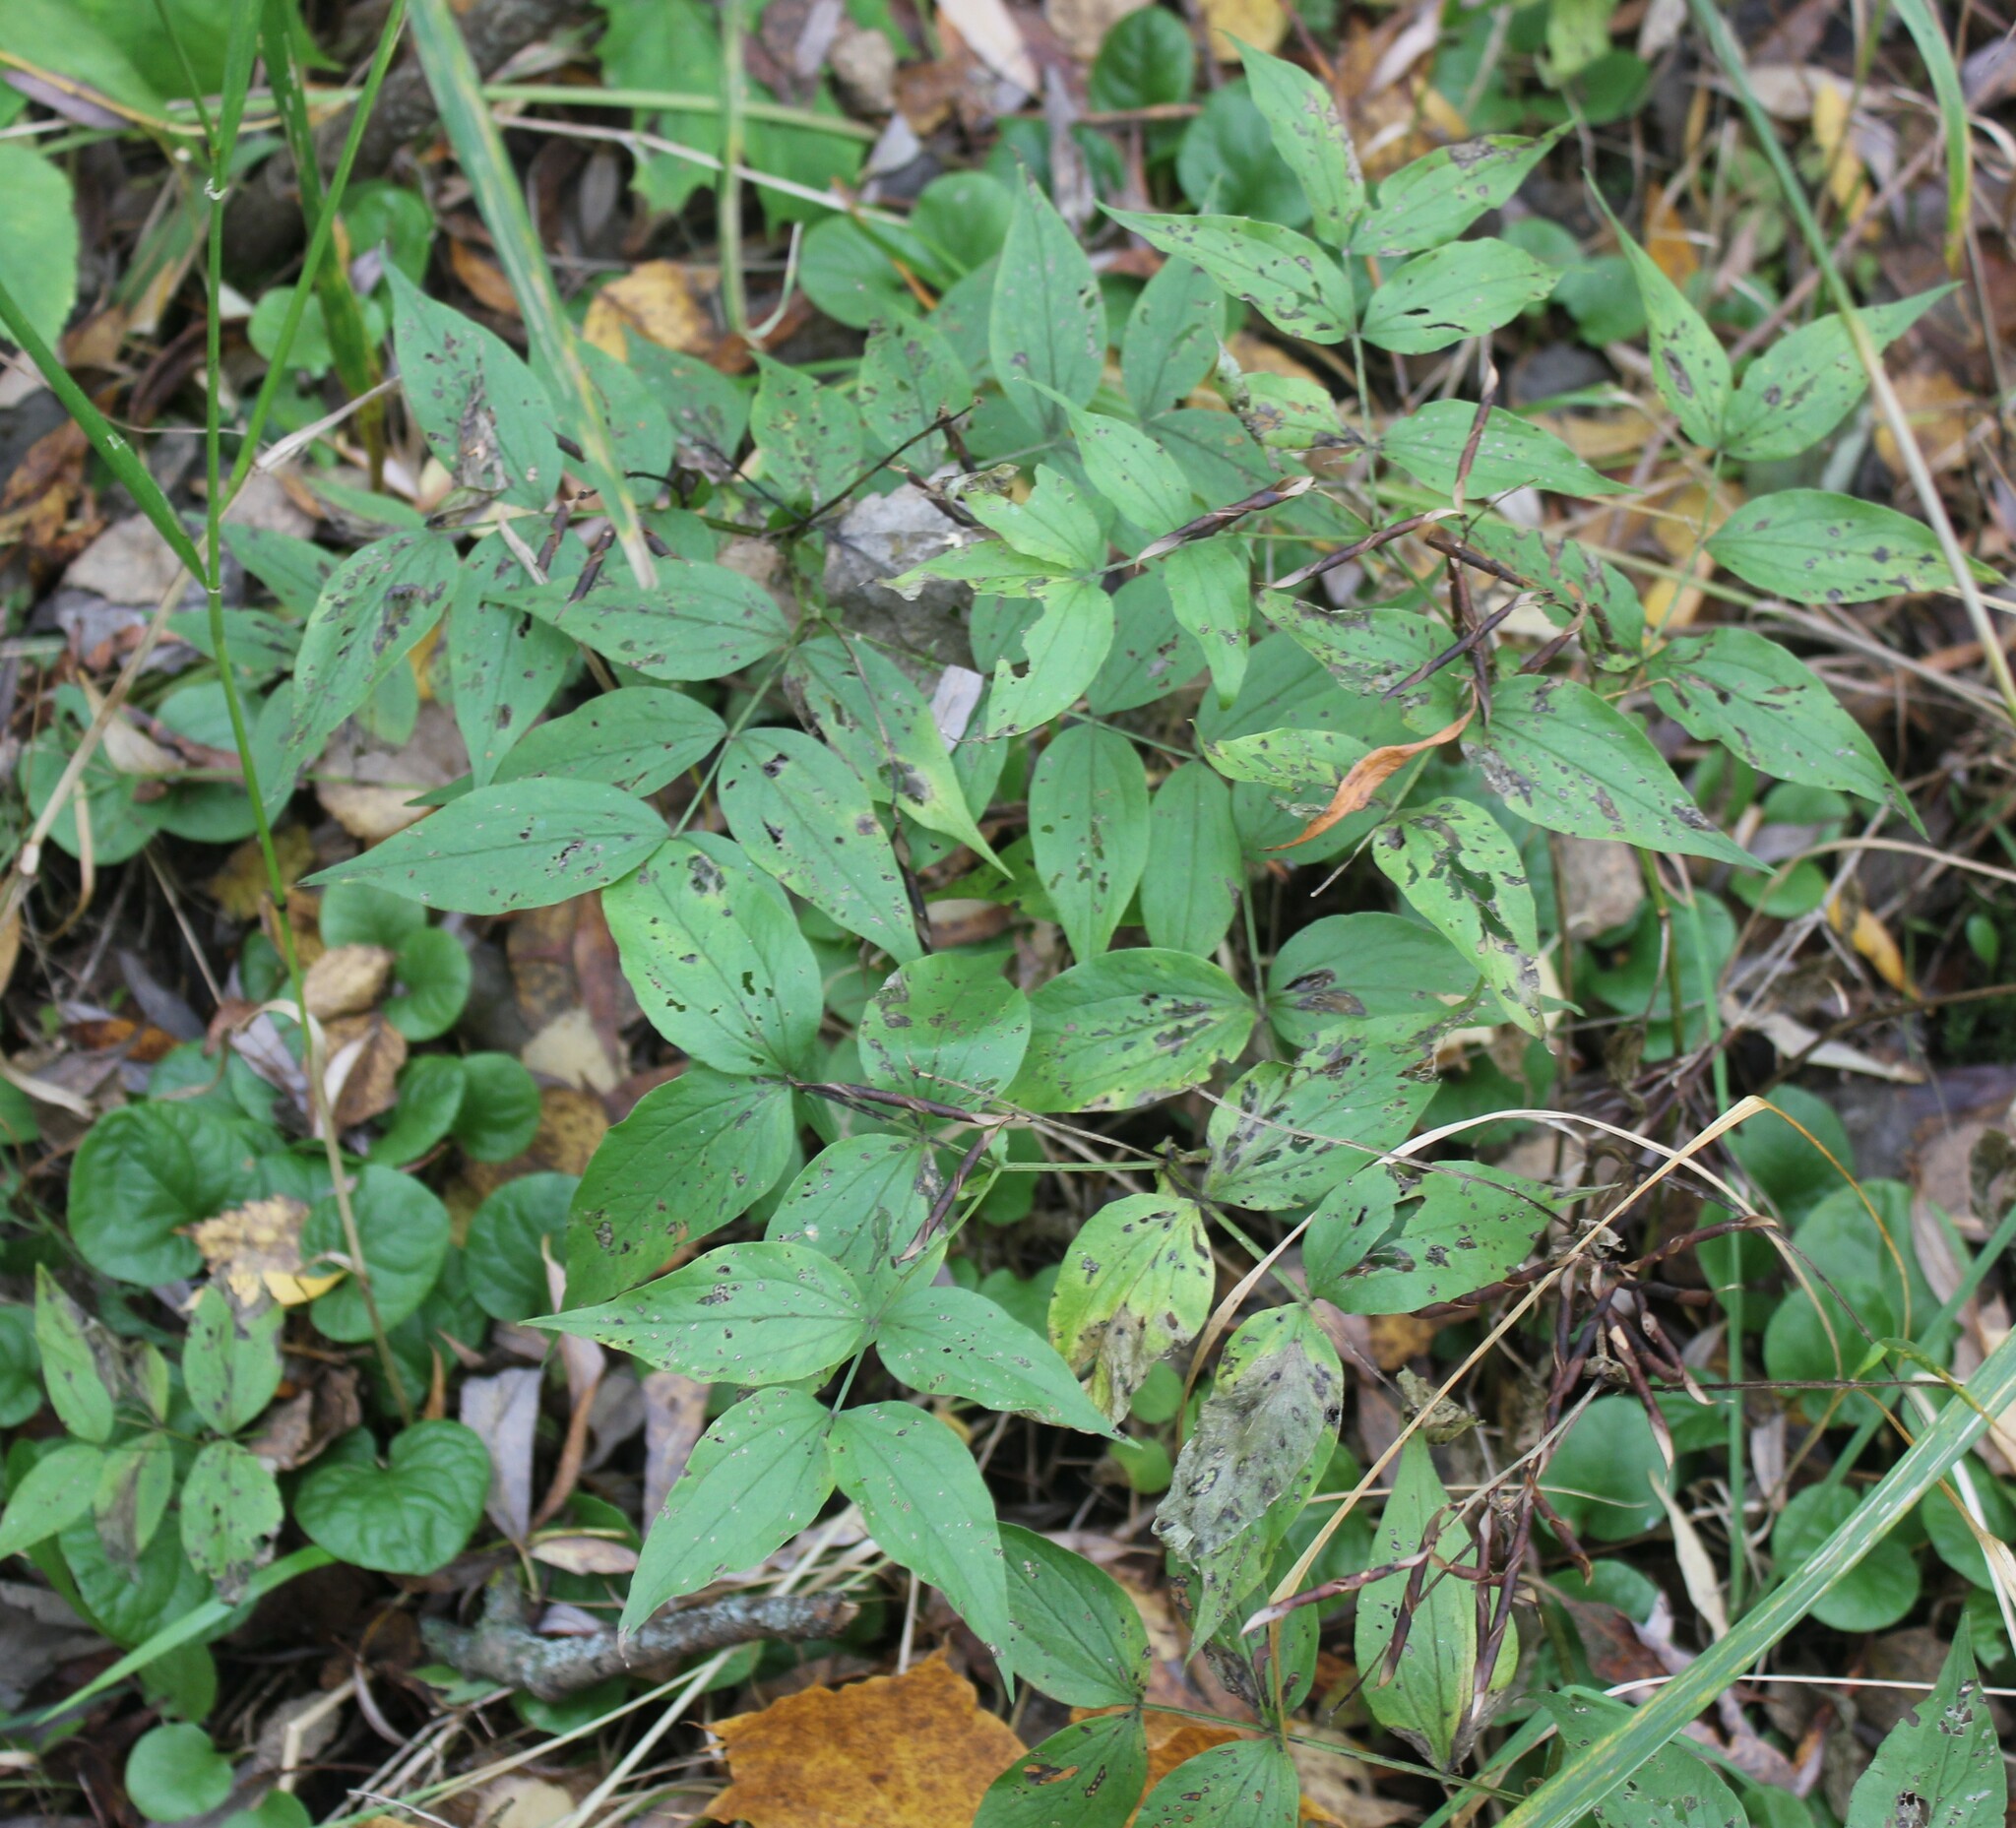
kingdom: Plantae
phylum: Tracheophyta
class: Magnoliopsida
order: Fabales
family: Fabaceae
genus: Lathyrus
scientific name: Lathyrus vernus
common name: Spring pea
